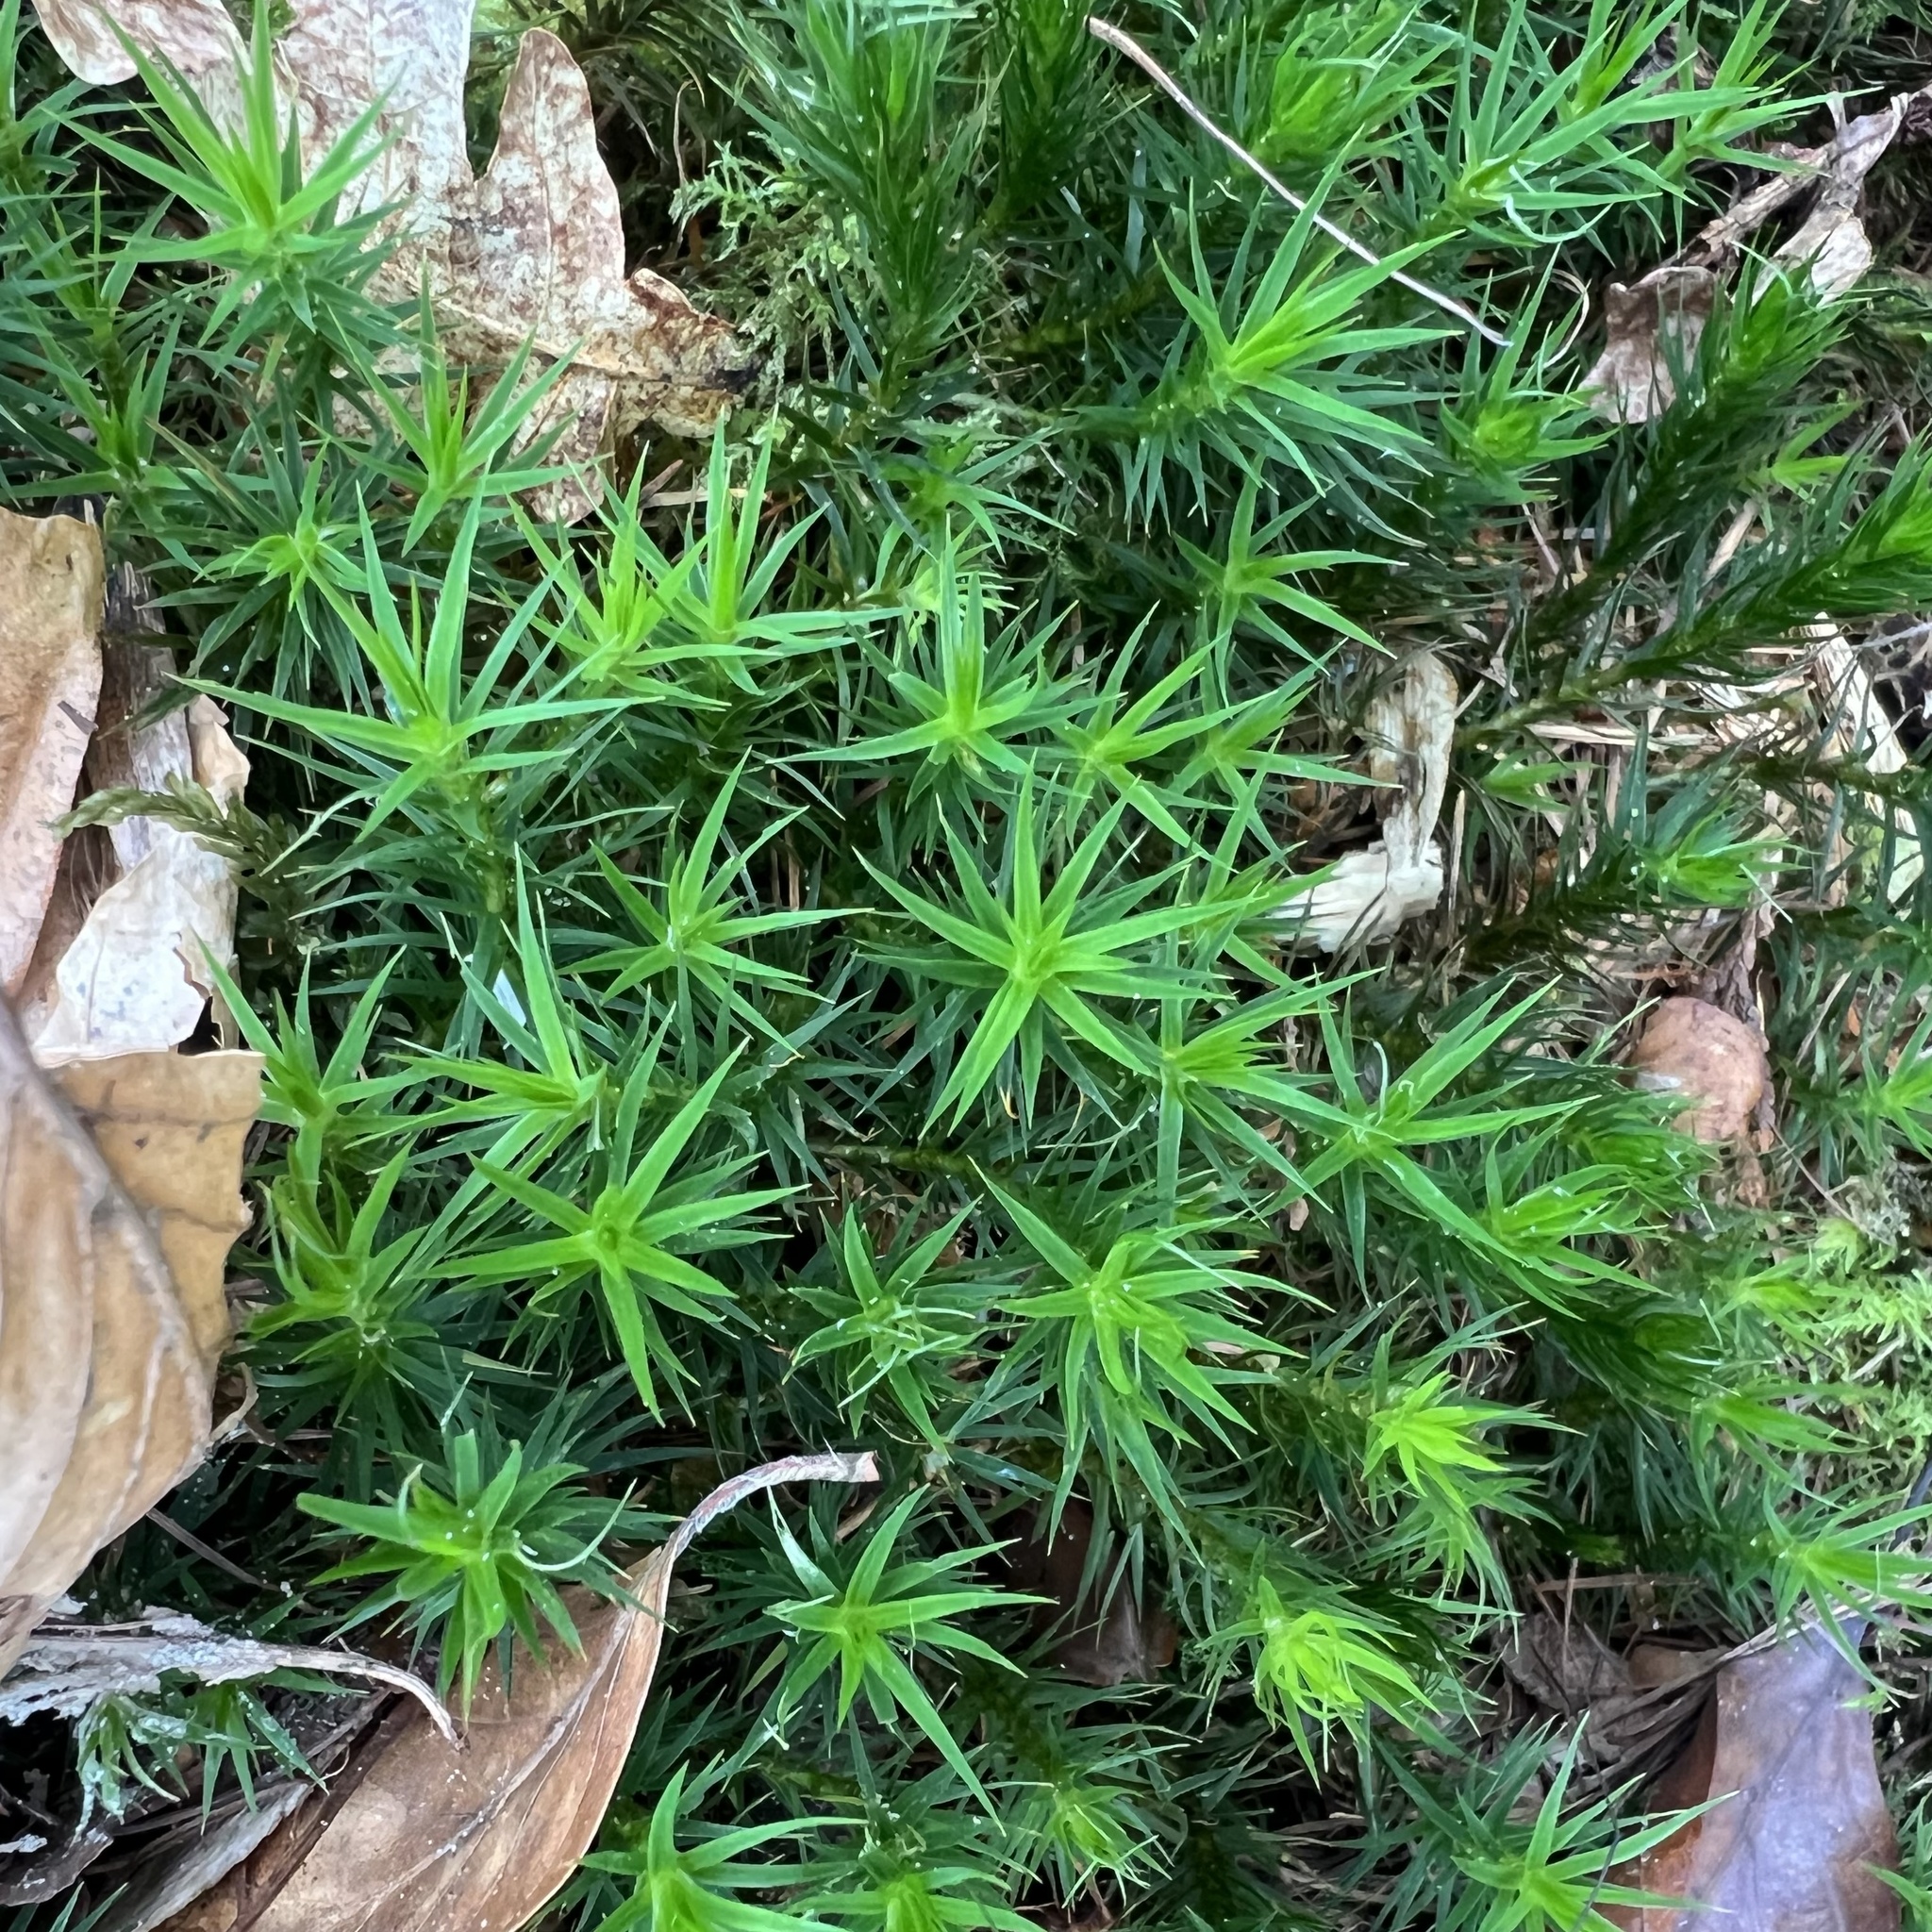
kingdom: Plantae
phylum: Bryophyta
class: Polytrichopsida
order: Polytrichales
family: Polytrichaceae
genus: Polytrichum
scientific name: Polytrichum formosum
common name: Bank haircap moss
